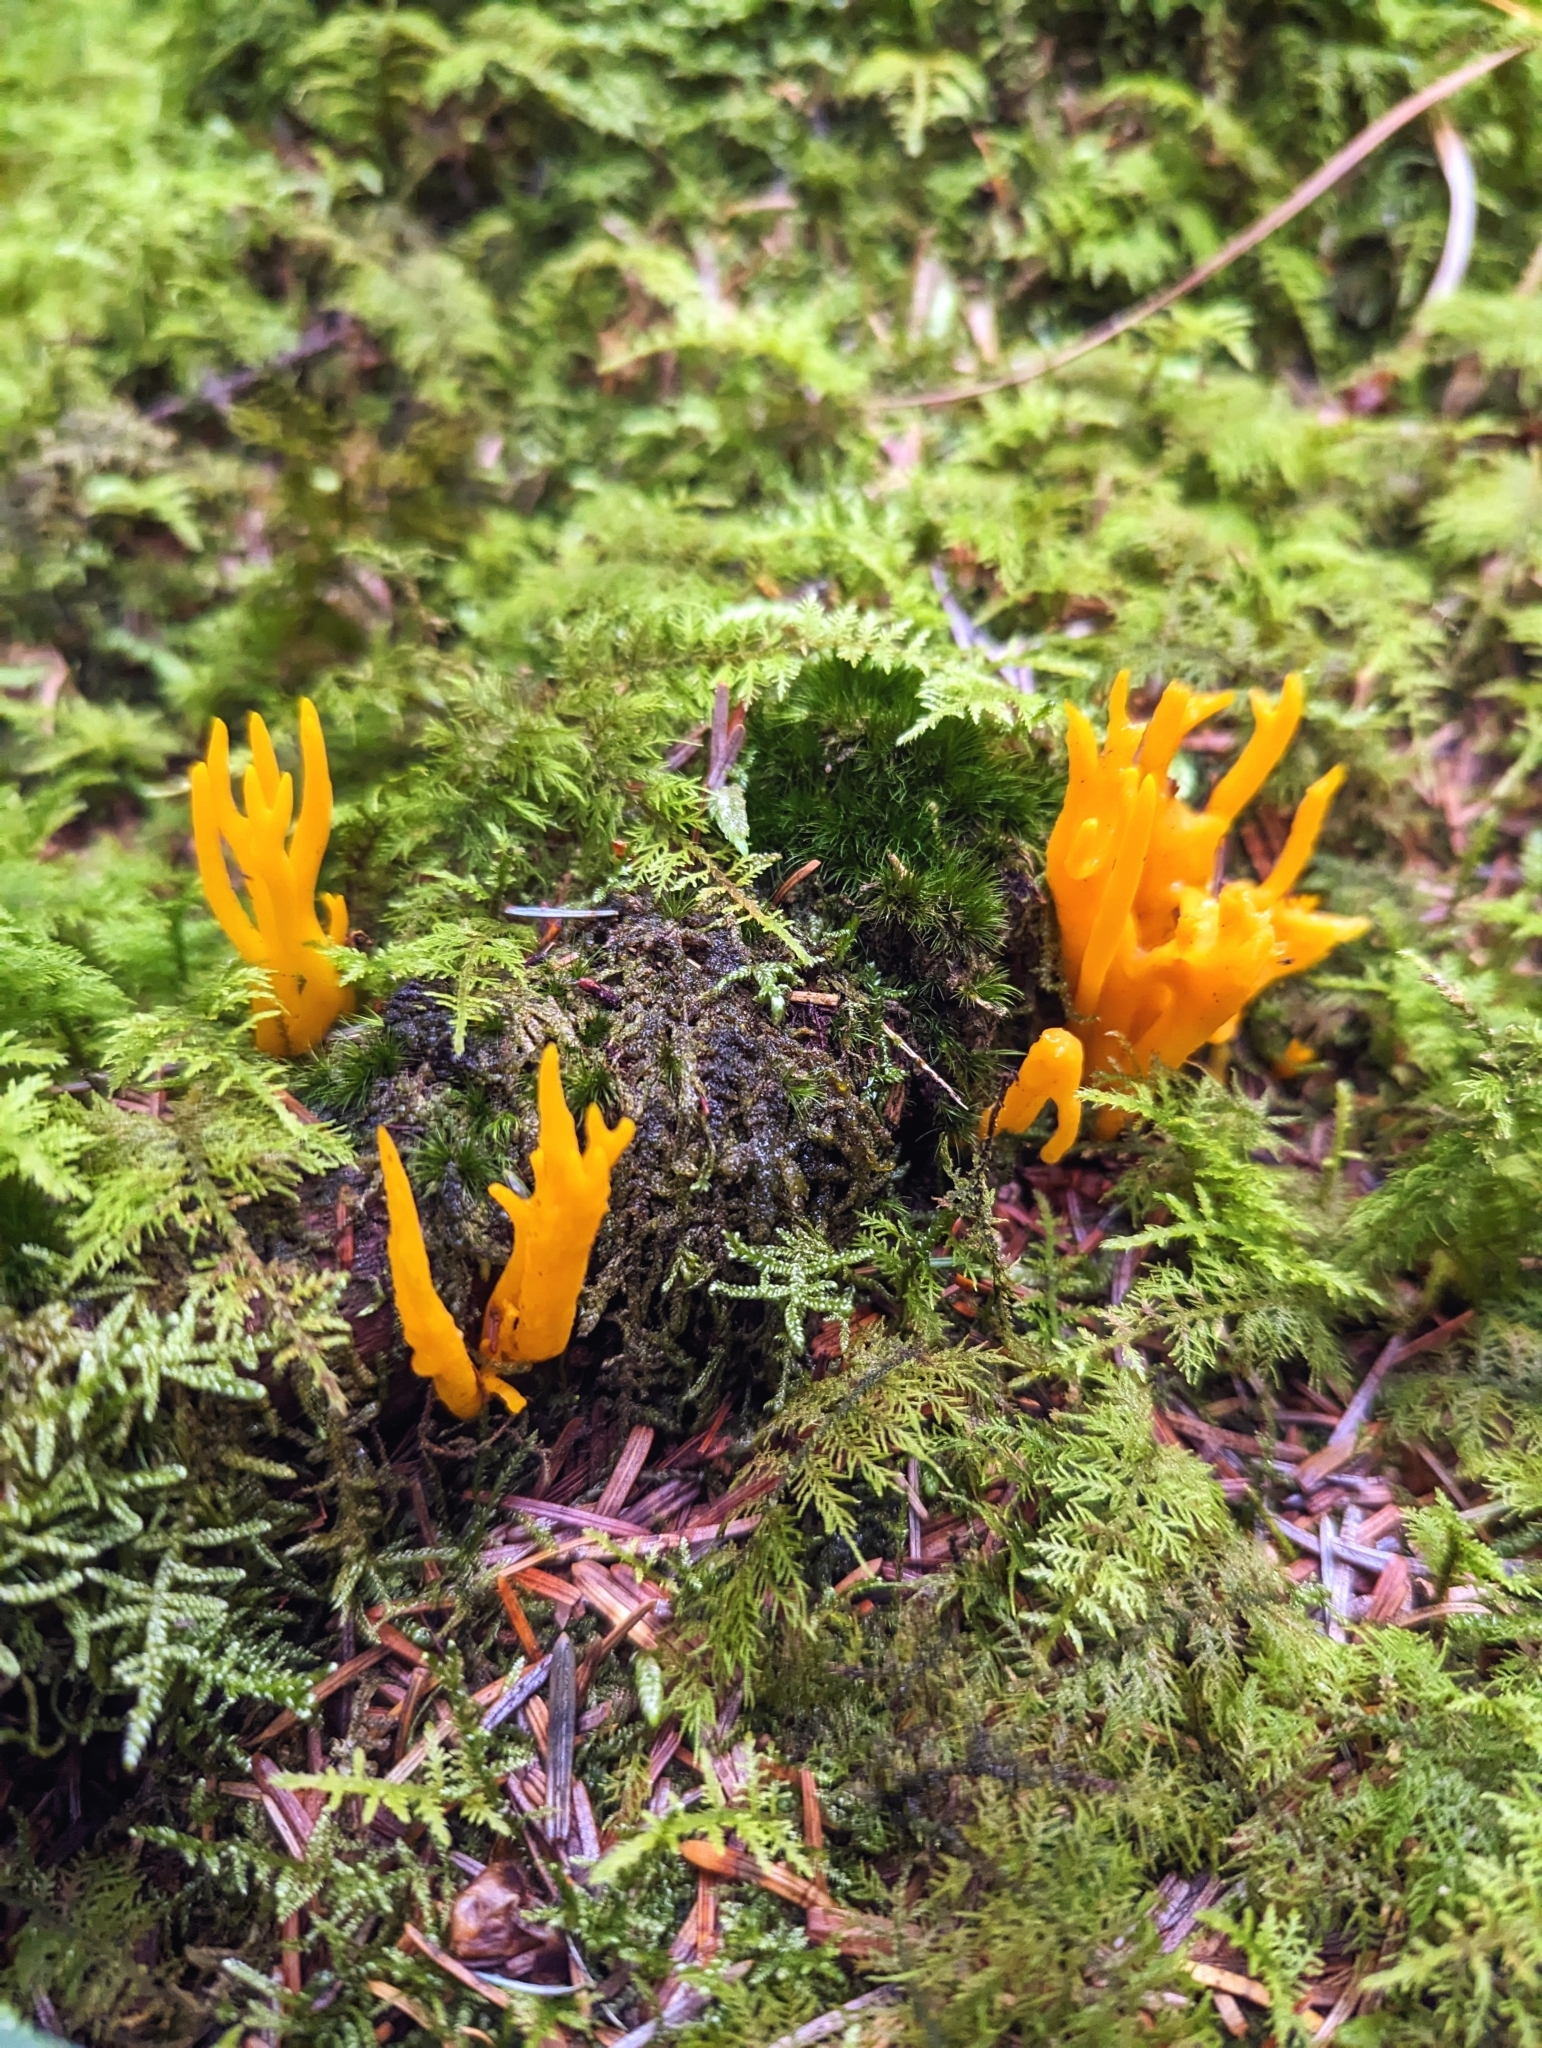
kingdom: Fungi
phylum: Basidiomycota
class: Dacrymycetes
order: Dacrymycetales
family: Dacrymycetaceae
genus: Calocera
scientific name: Calocera viscosa
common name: Yellow stagshorn
